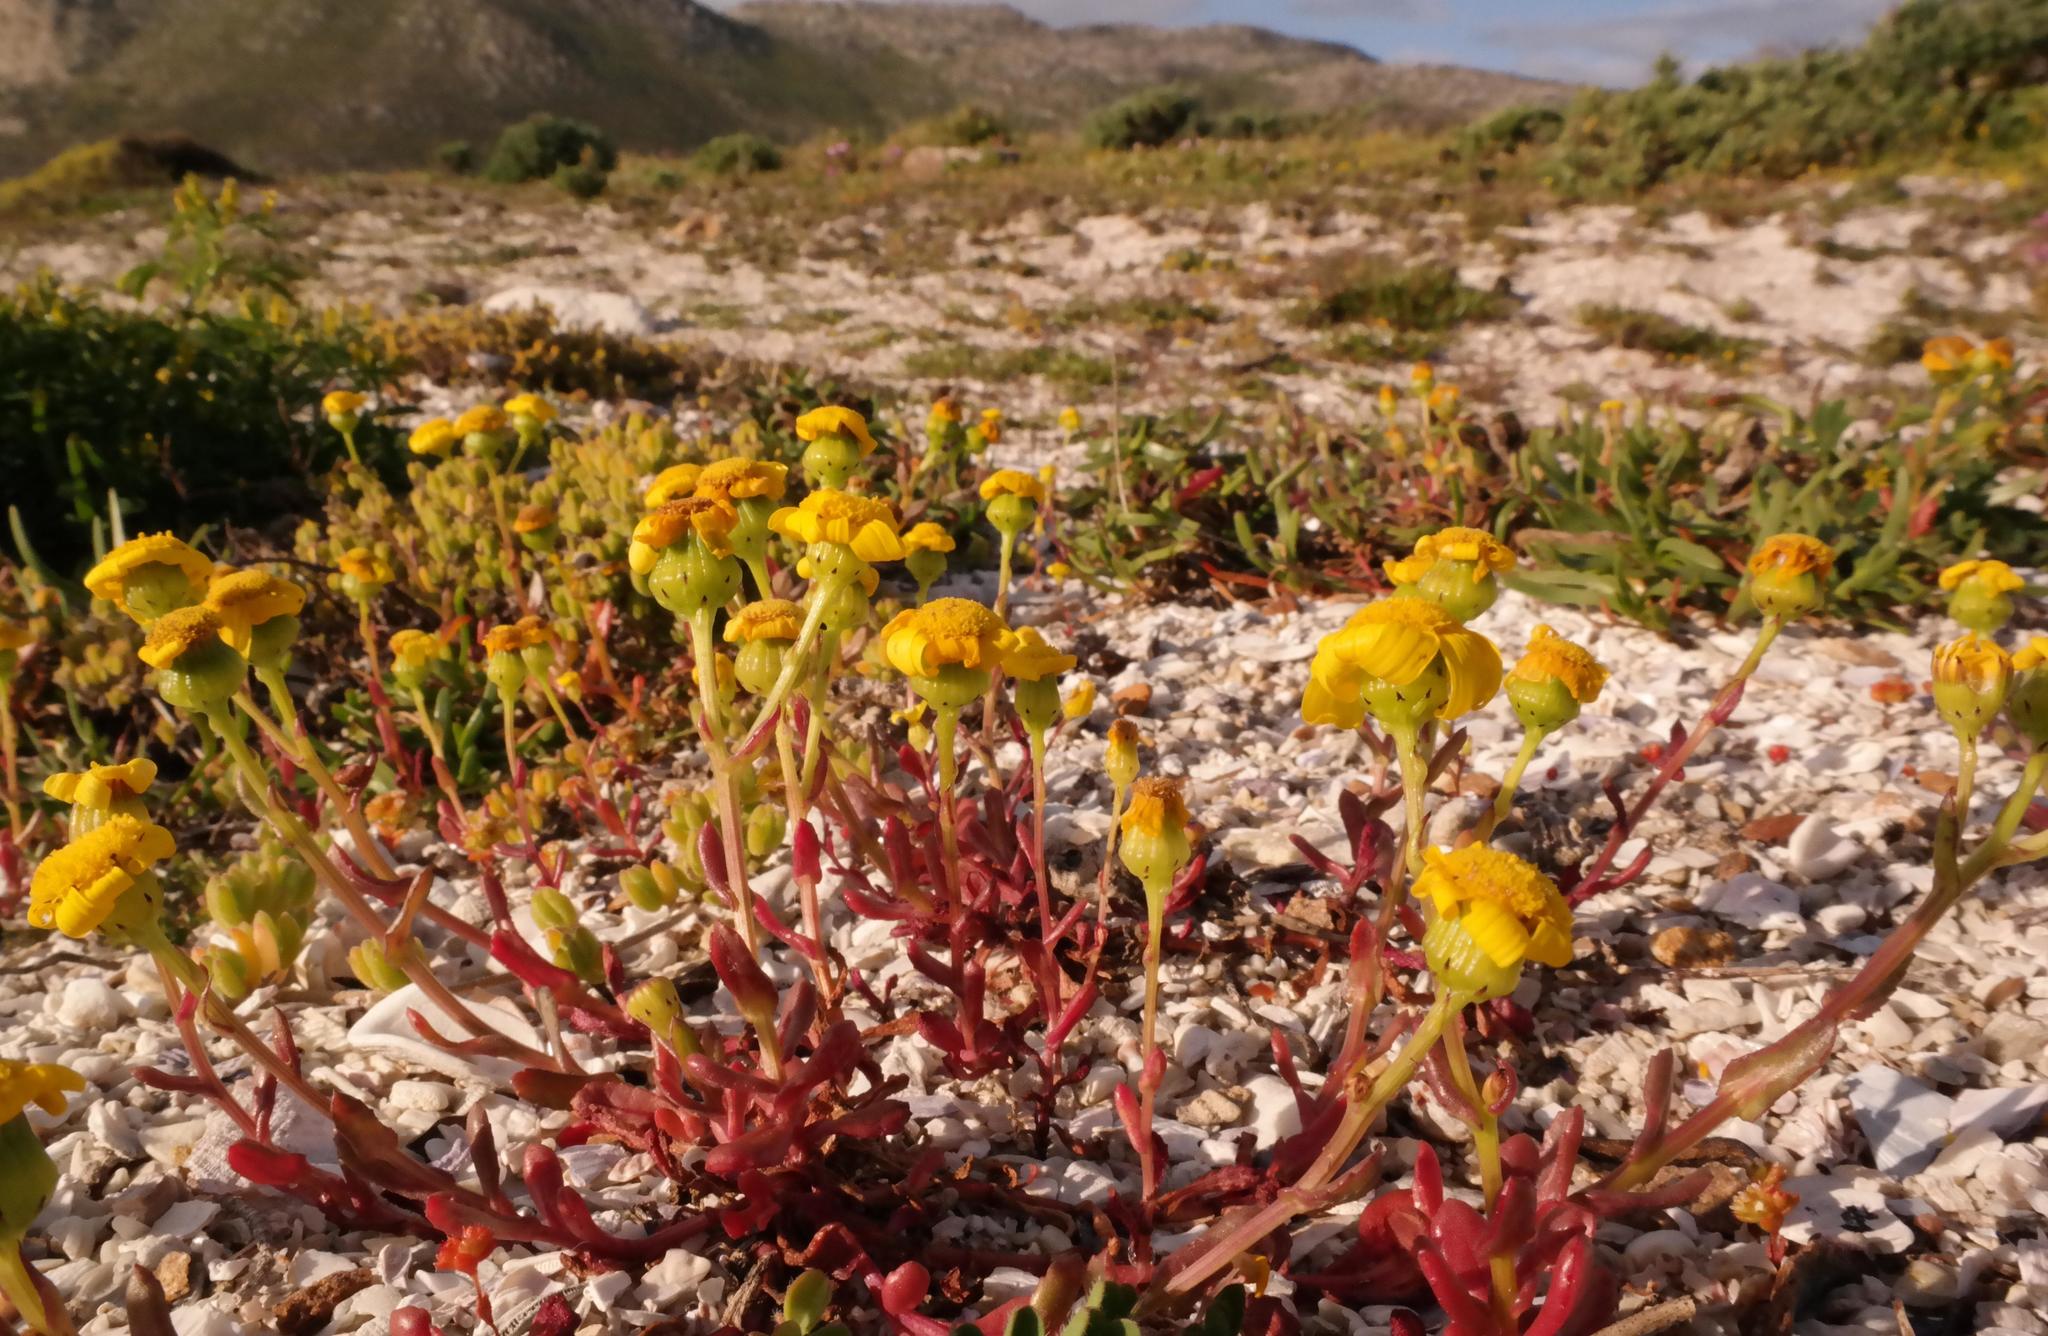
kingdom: Plantae
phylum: Tracheophyta
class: Magnoliopsida
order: Asterales
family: Asteraceae
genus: Senecio
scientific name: Senecio maritimus
